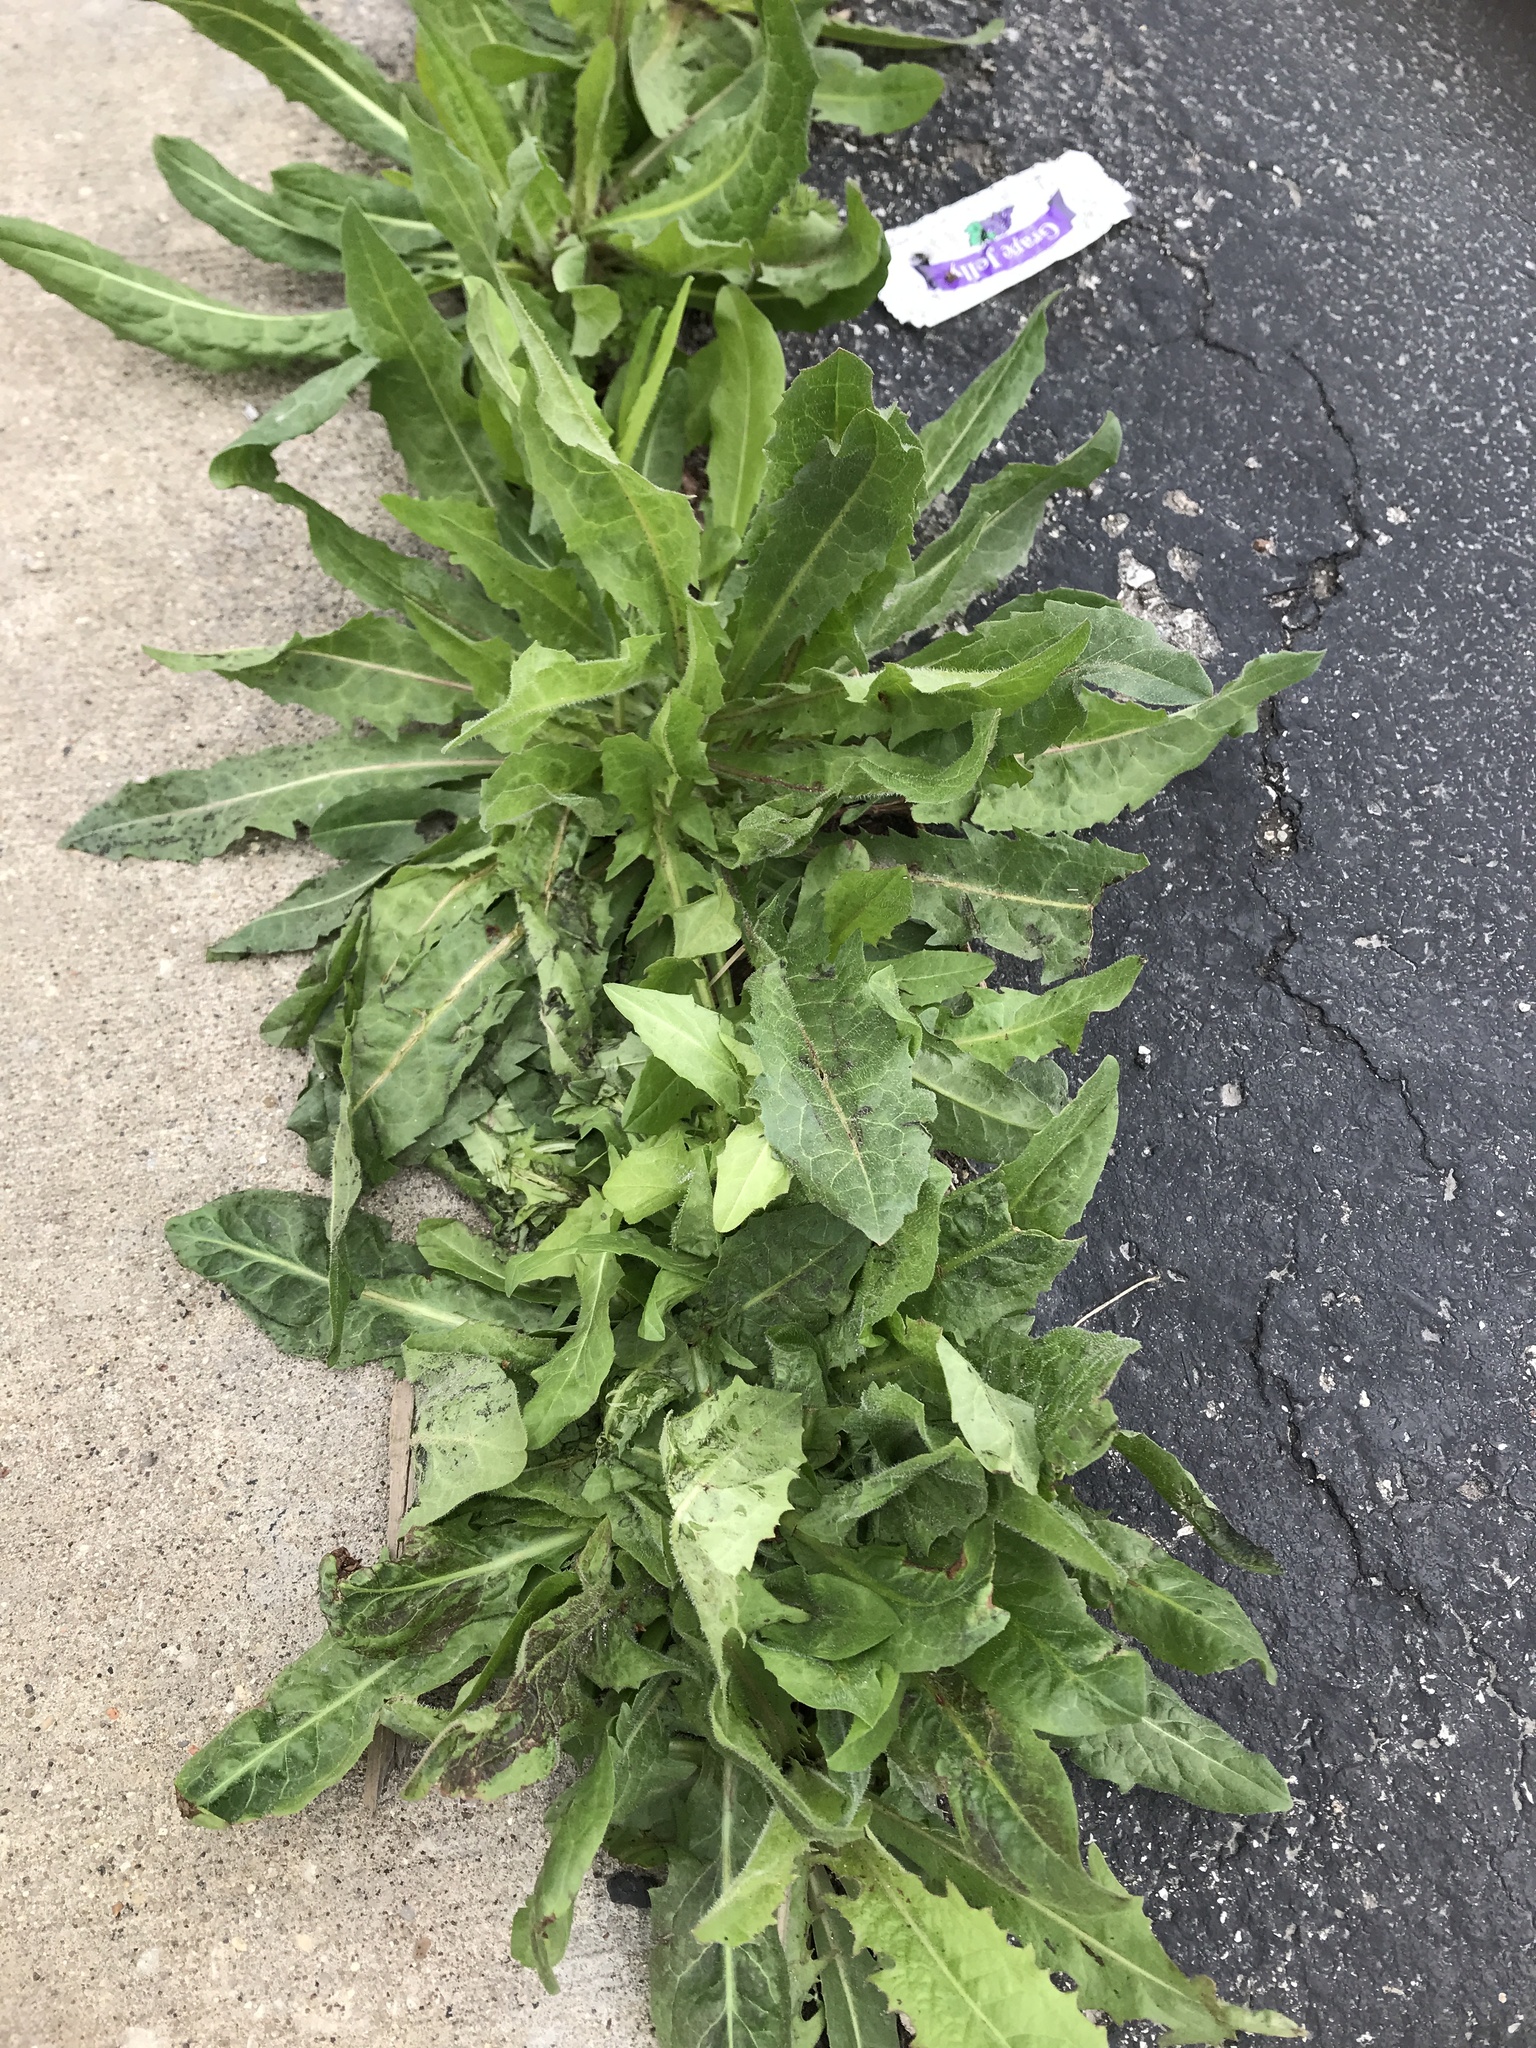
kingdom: Plantae
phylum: Tracheophyta
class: Magnoliopsida
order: Asterales
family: Asteraceae
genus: Cichorium
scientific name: Cichorium intybus
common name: Chicory
